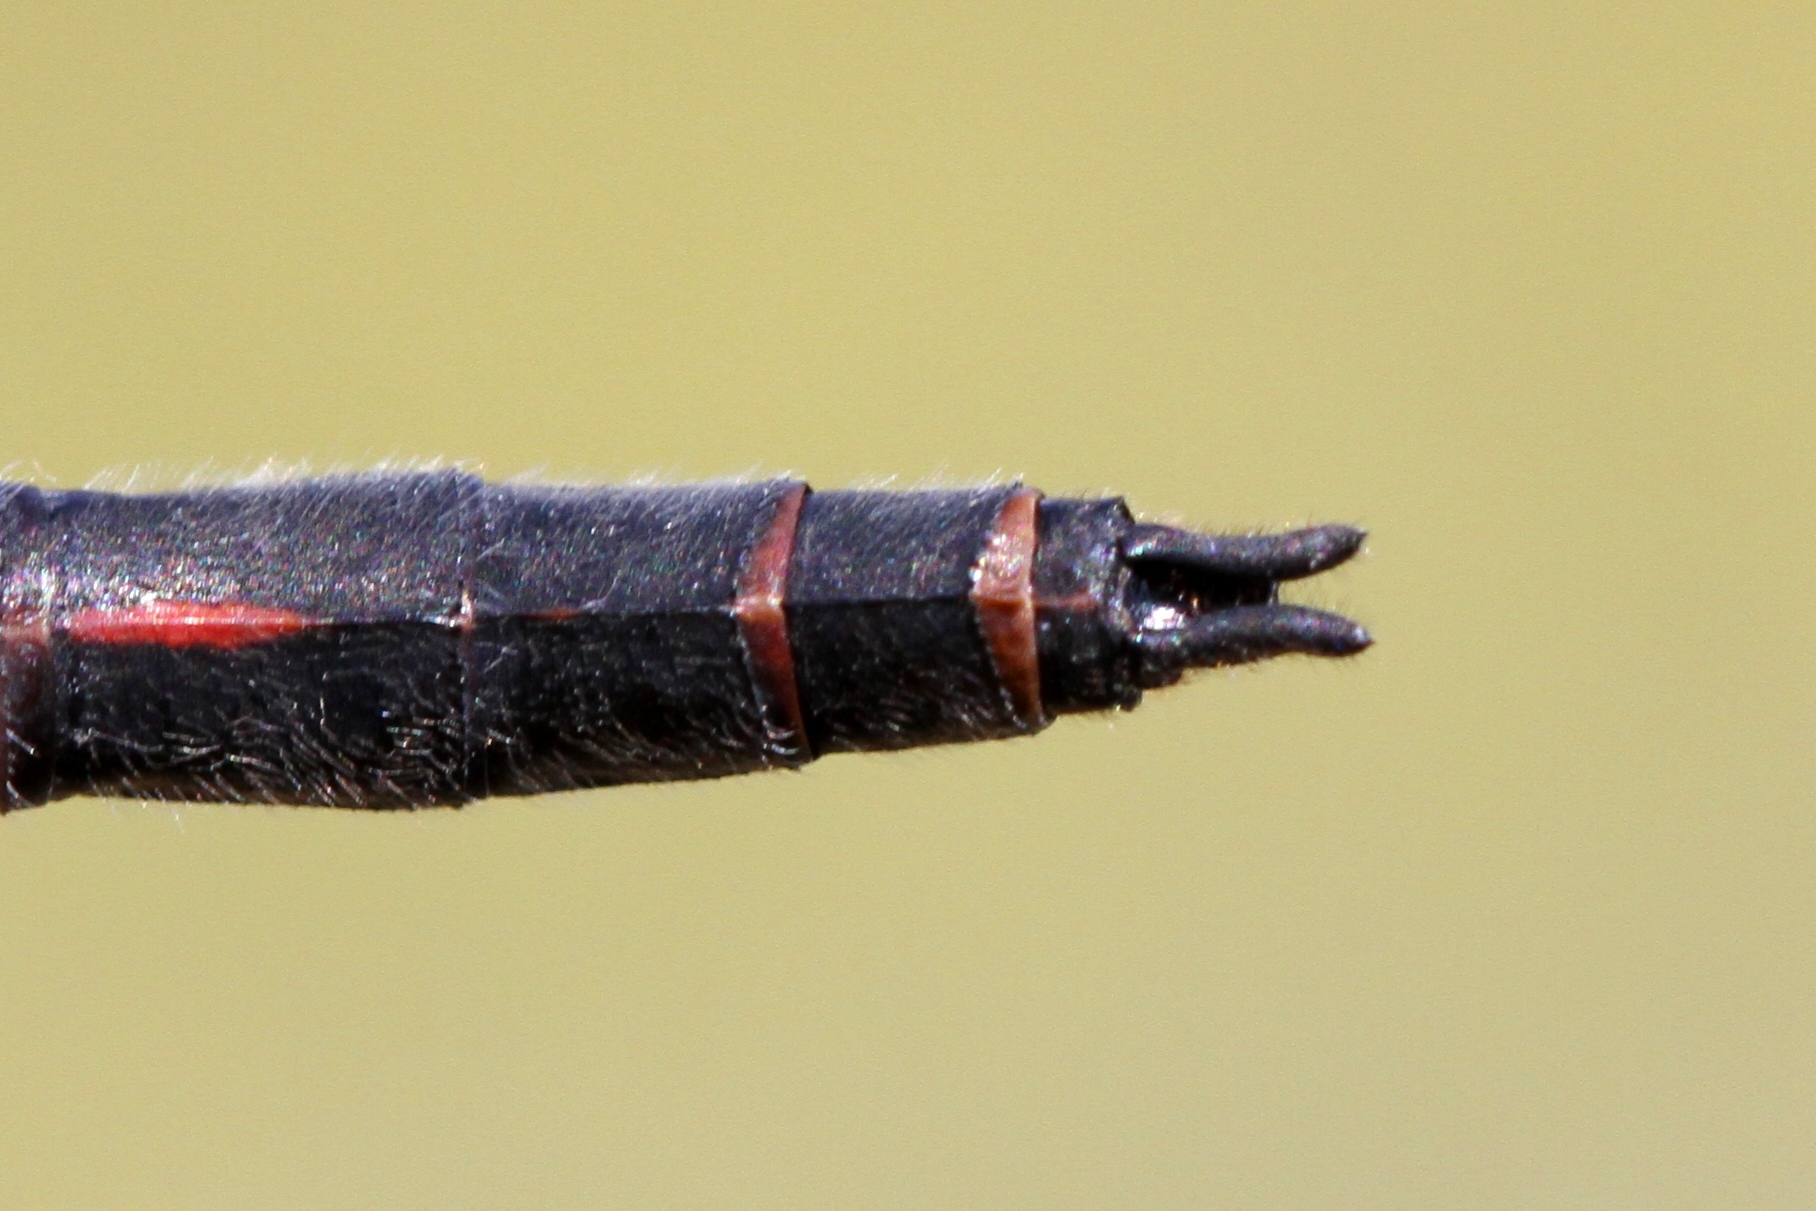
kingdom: Animalia
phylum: Arthropoda
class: Insecta
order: Odonata
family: Libellulidae
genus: Leucorrhinia
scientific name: Leucorrhinia proxima
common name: Belted whiteface
